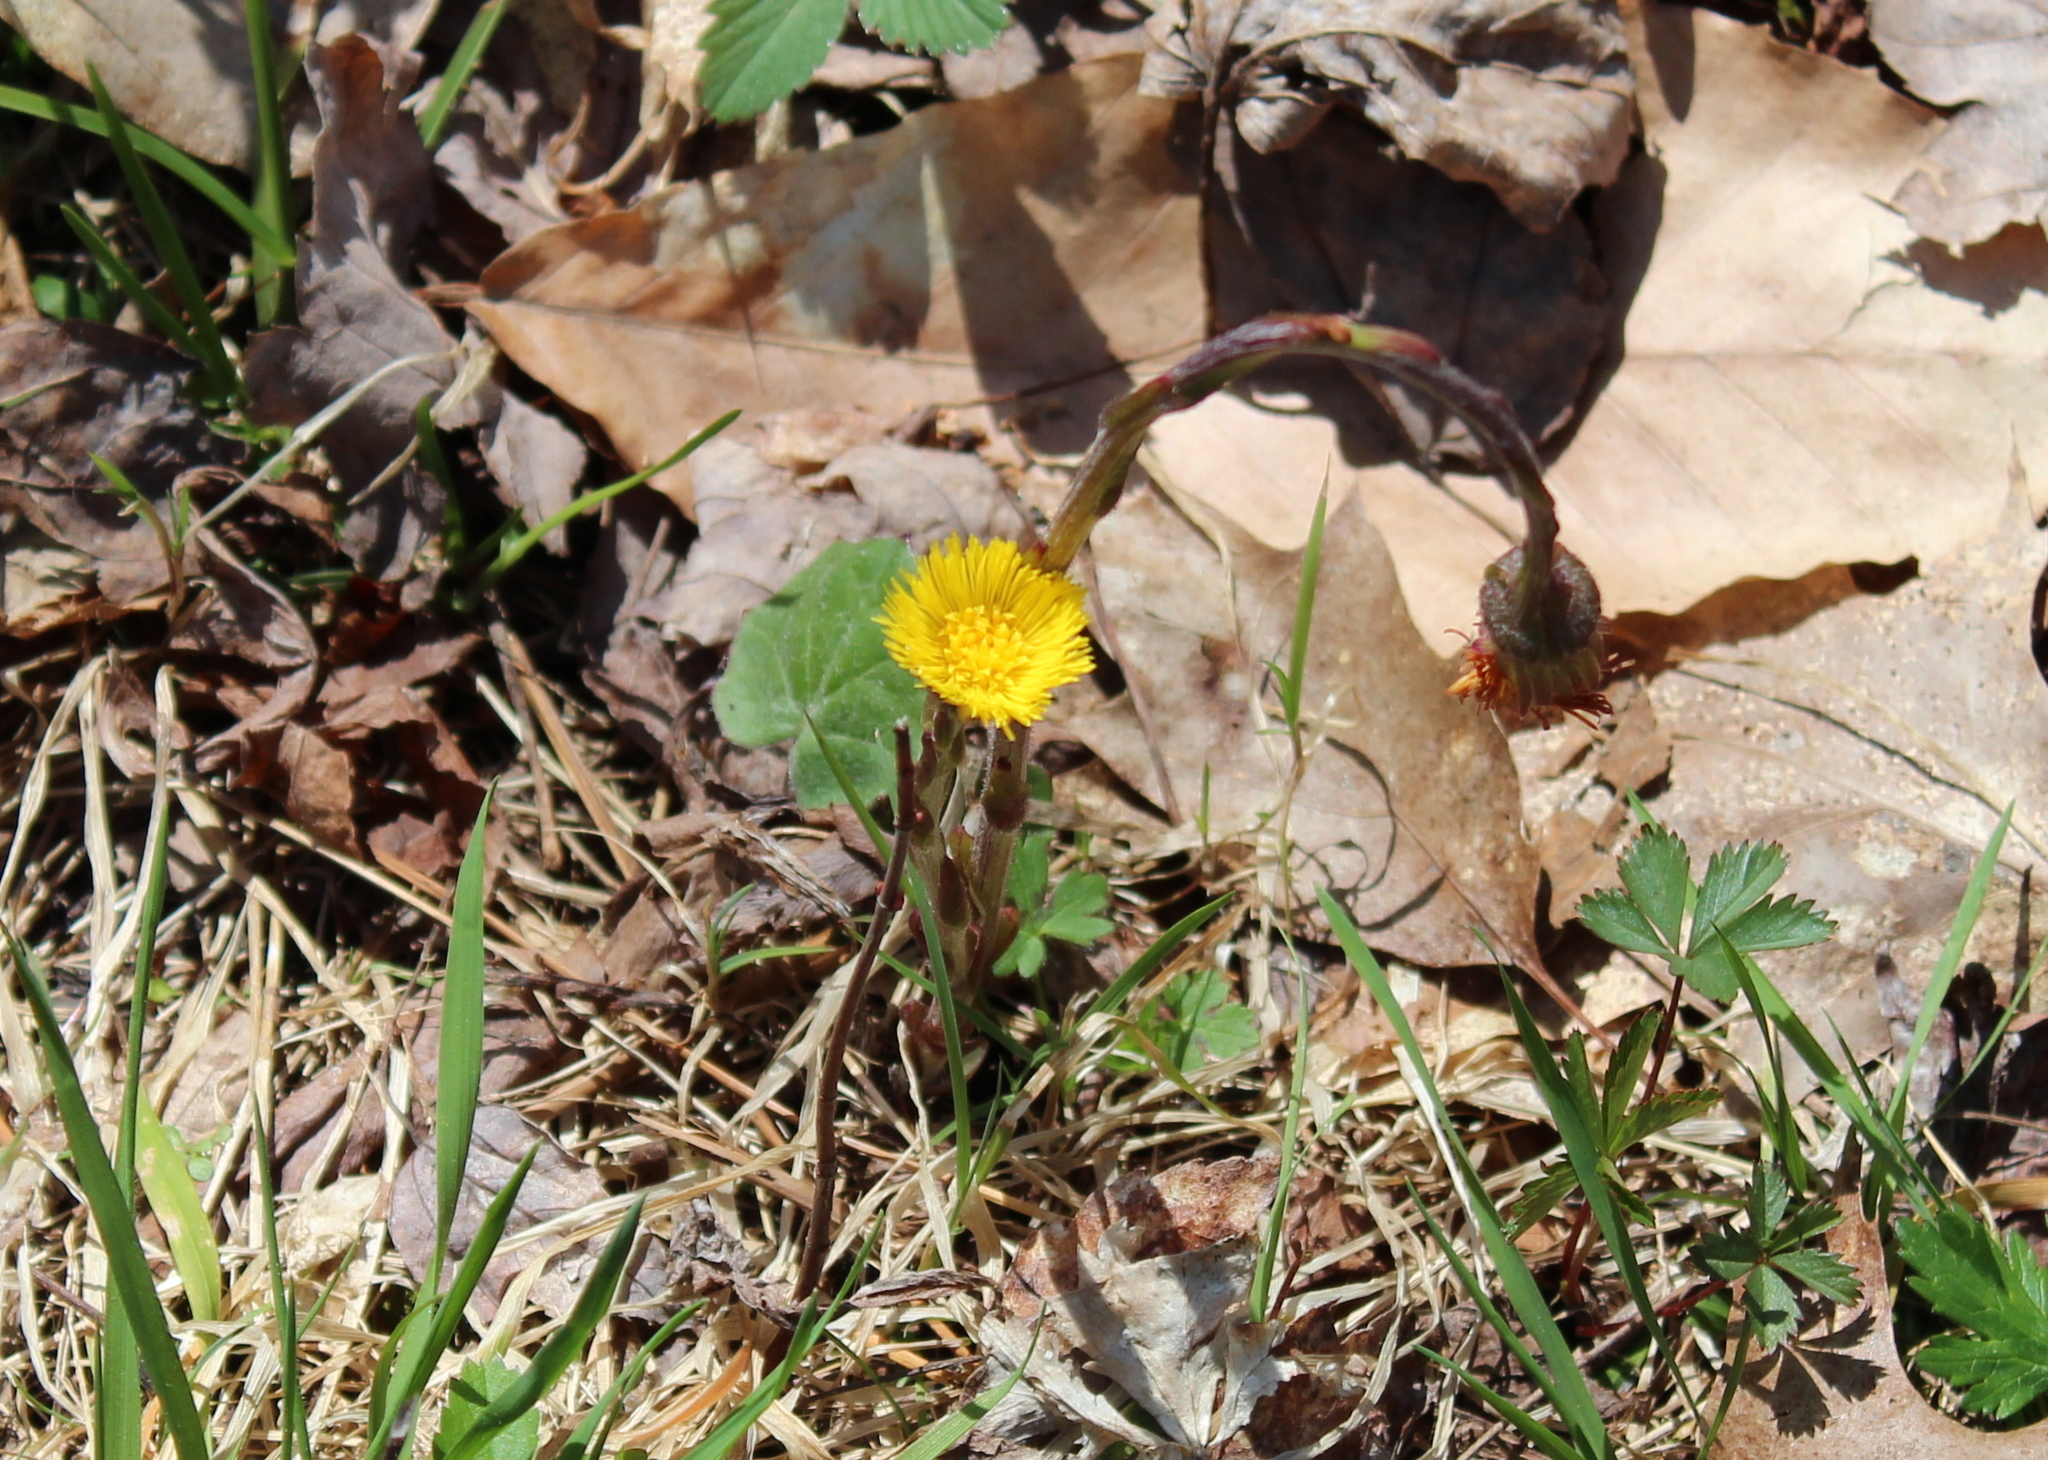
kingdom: Plantae
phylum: Tracheophyta
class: Magnoliopsida
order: Asterales
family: Asteraceae
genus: Tussilago
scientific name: Tussilago farfara
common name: Coltsfoot
